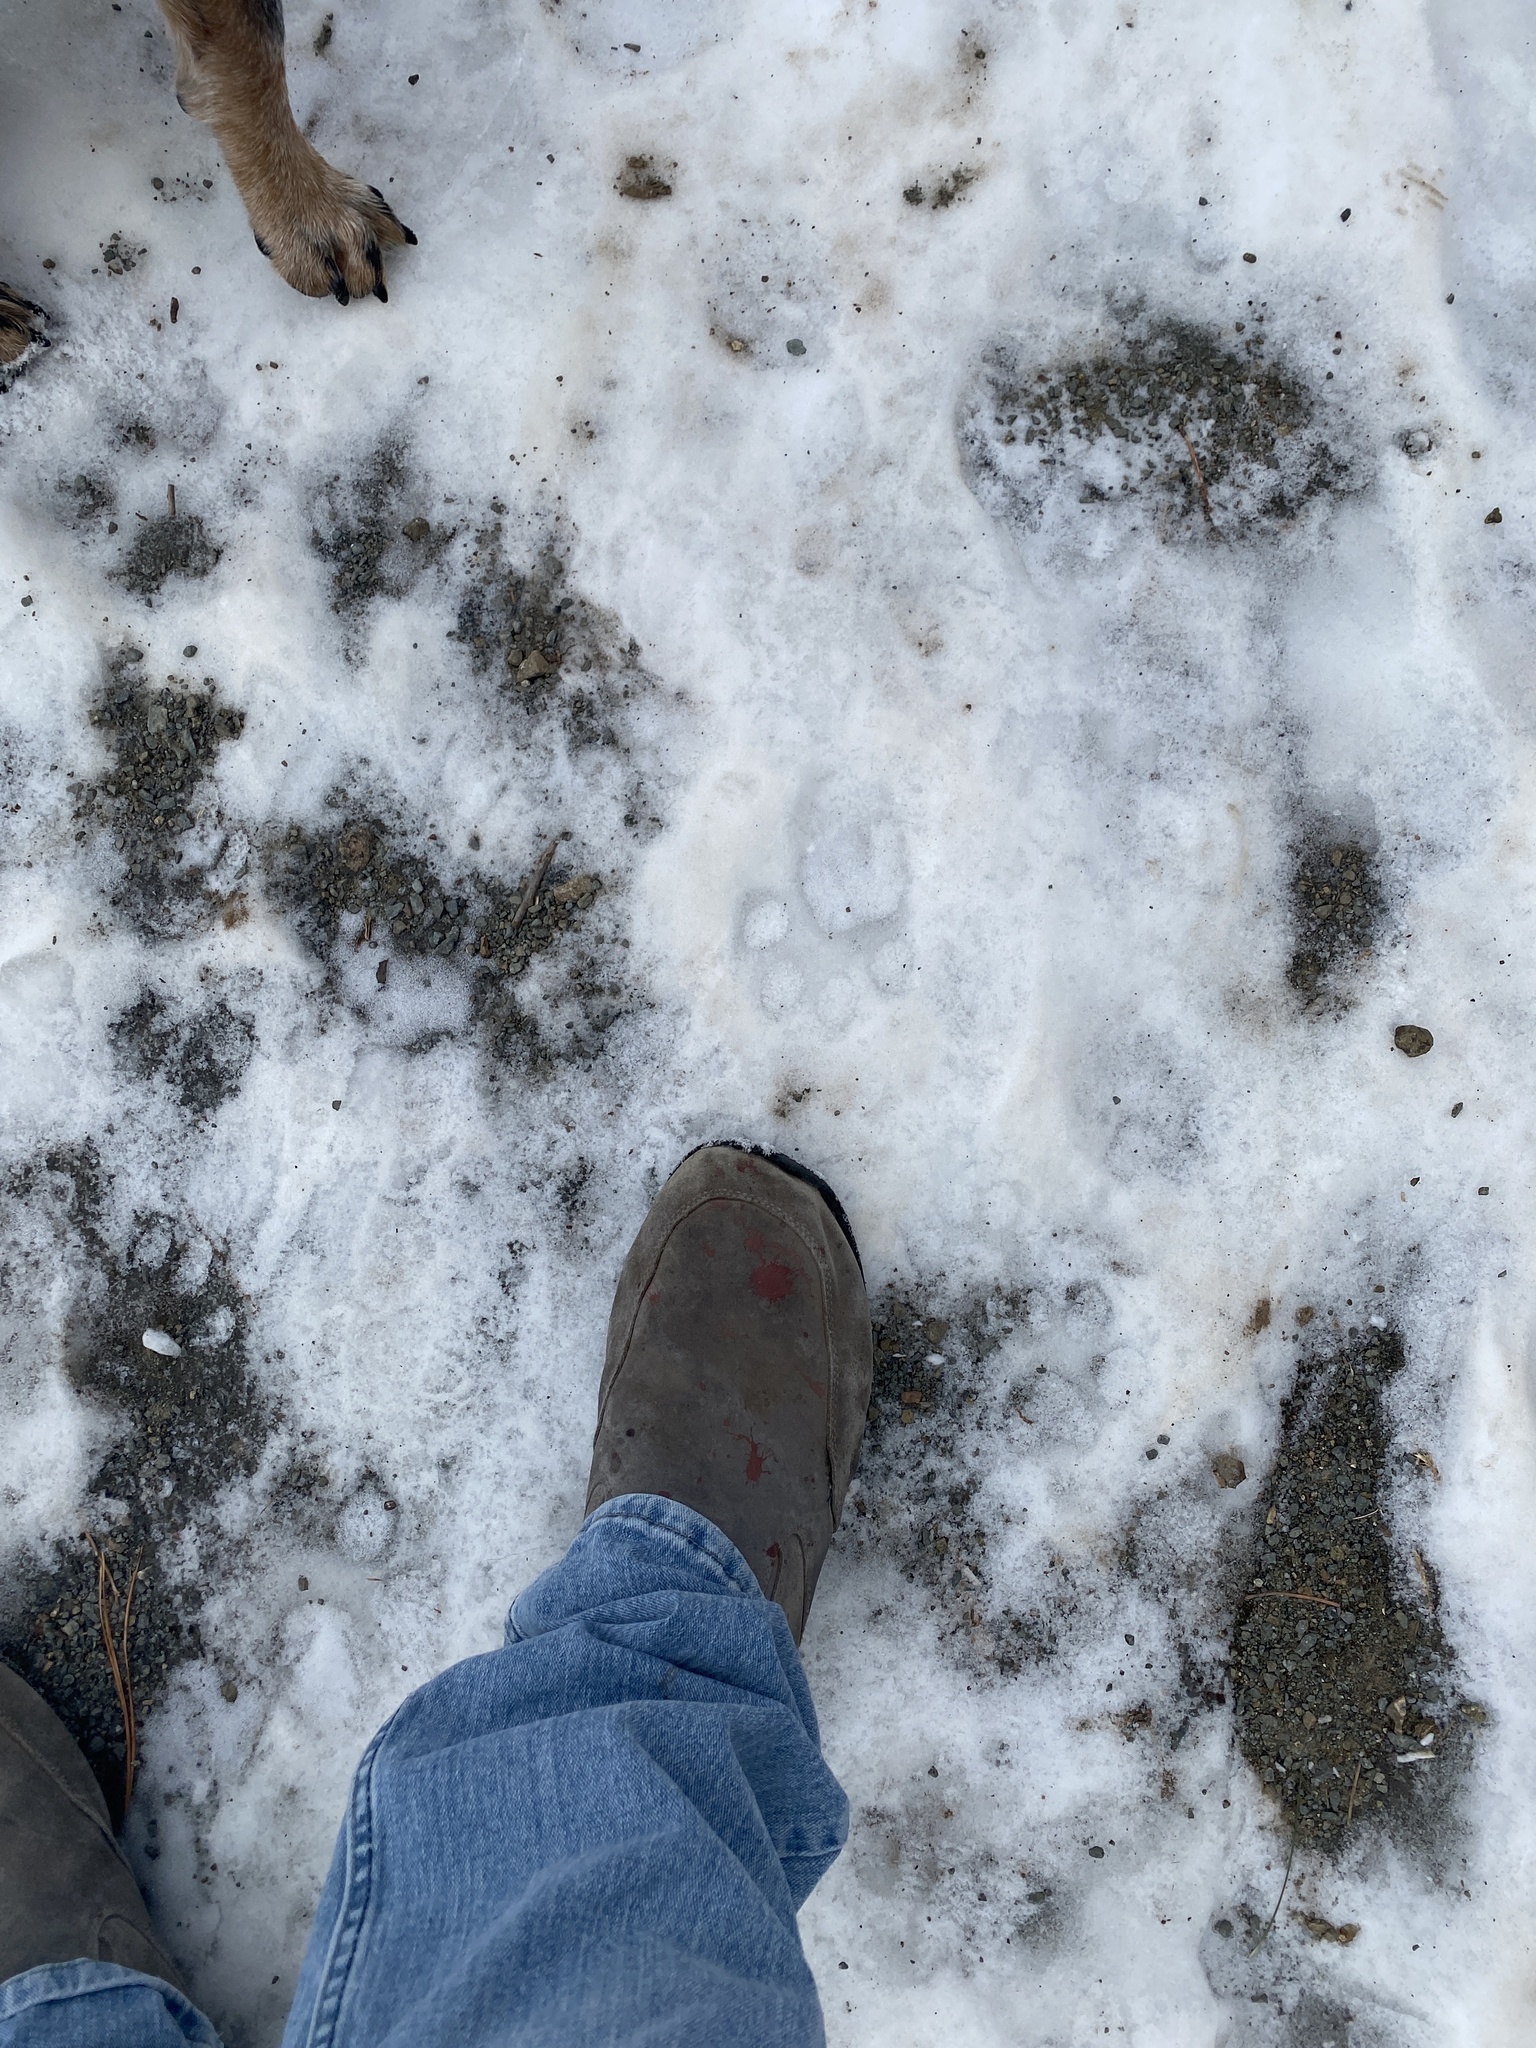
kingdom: Animalia
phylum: Chordata
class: Mammalia
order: Carnivora
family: Canidae
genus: Canis
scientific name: Canis lupus
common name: Gray wolf
